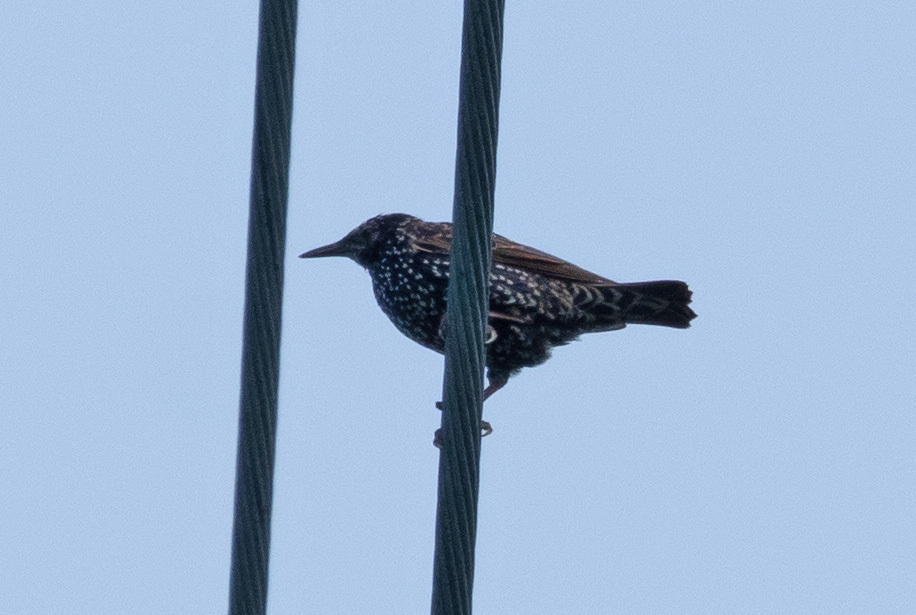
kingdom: Animalia
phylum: Chordata
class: Aves
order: Passeriformes
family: Sturnidae
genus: Sturnus
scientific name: Sturnus vulgaris
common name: Common starling
